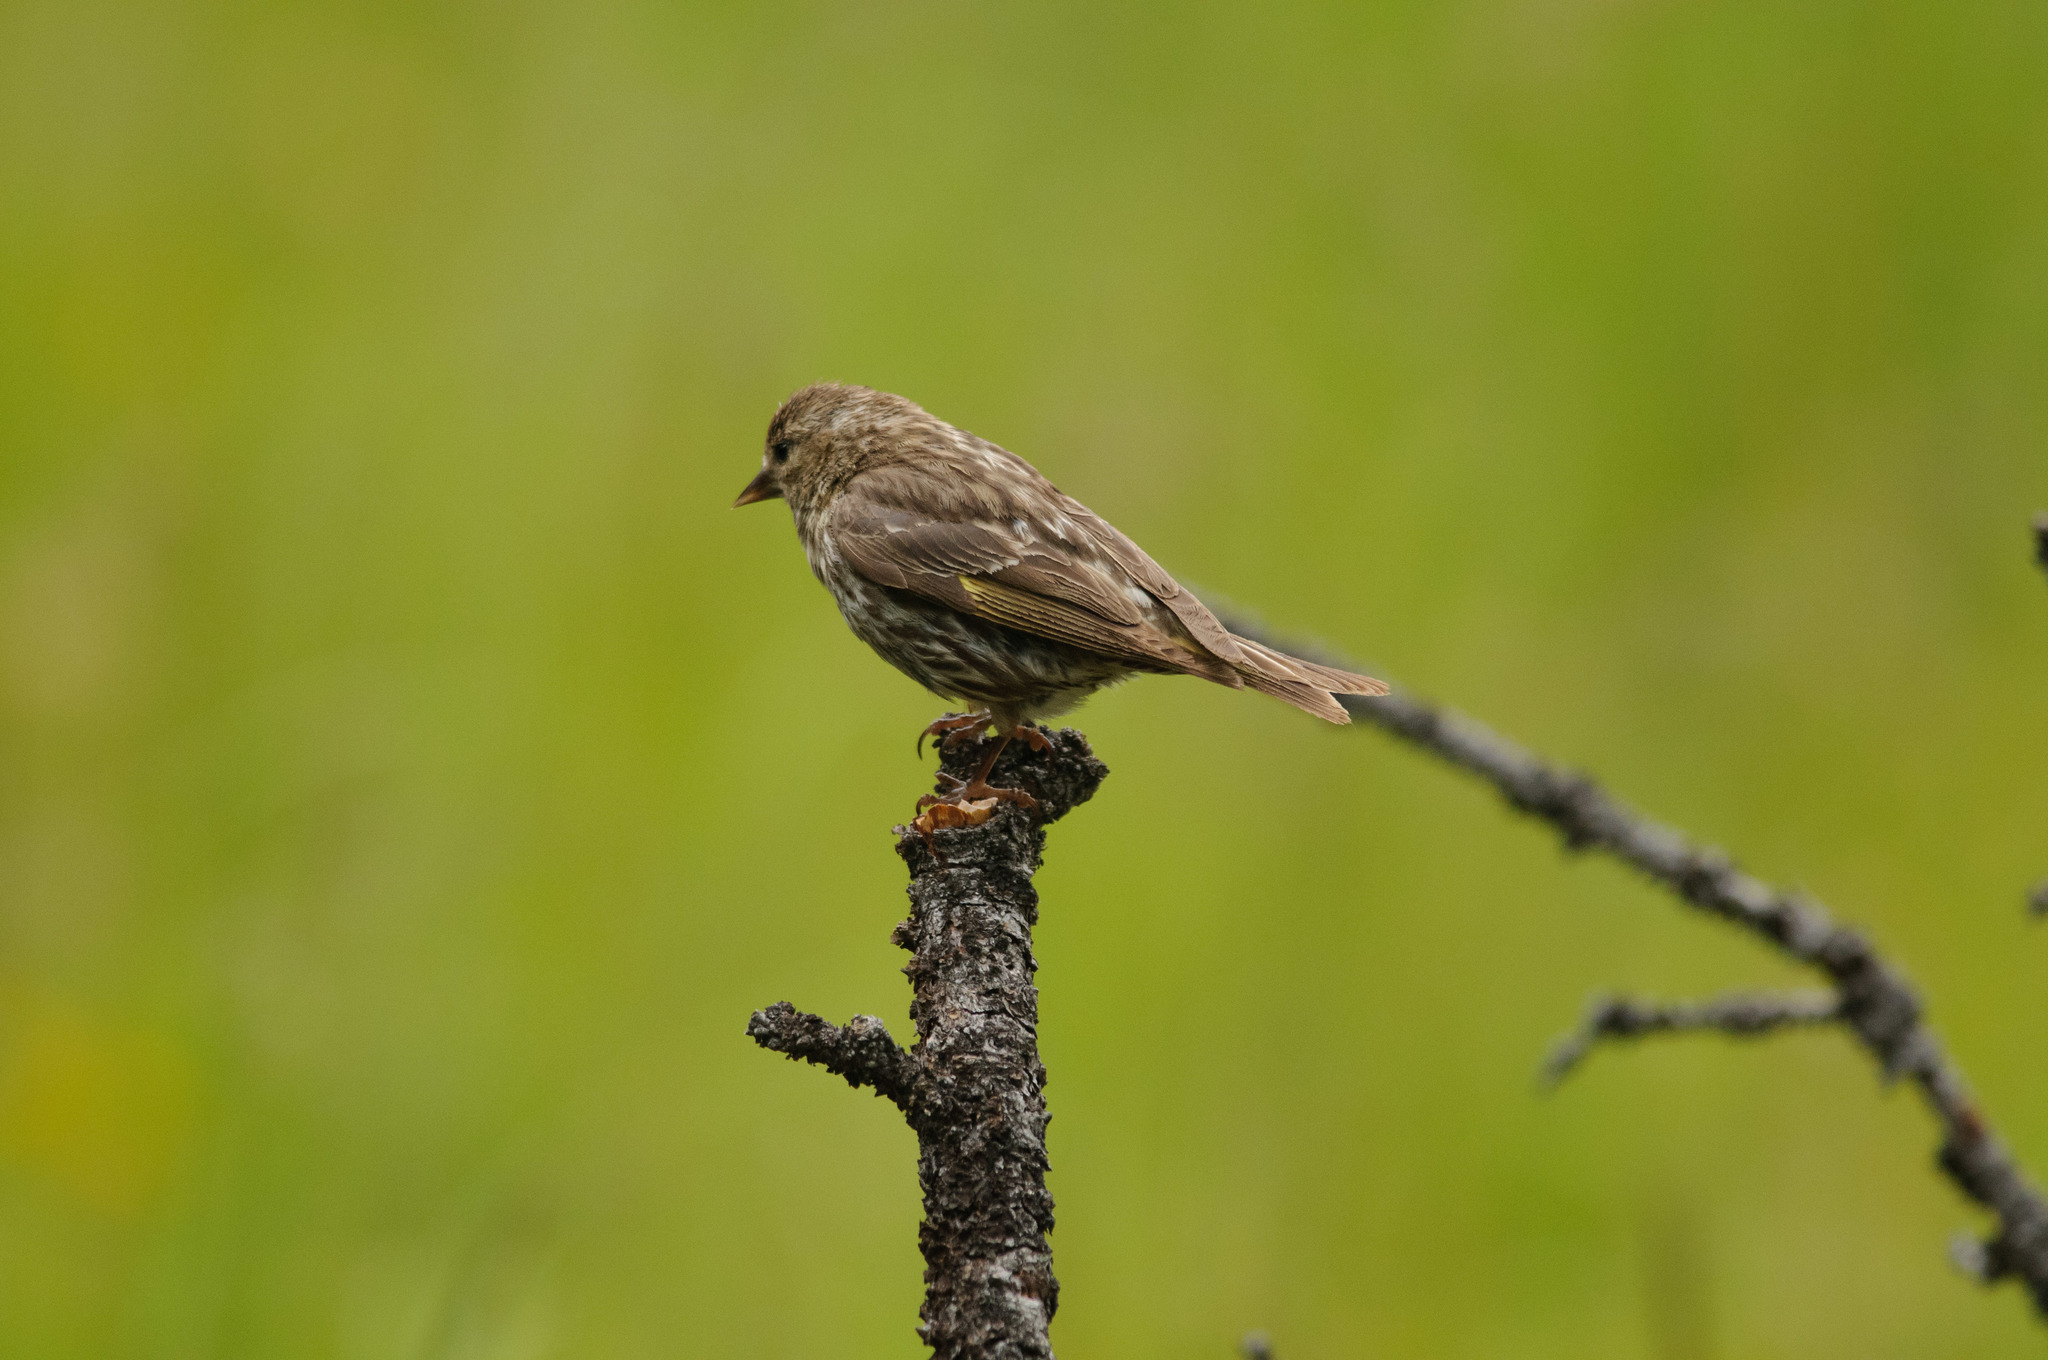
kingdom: Animalia
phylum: Chordata
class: Aves
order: Passeriformes
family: Fringillidae
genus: Spinus
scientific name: Spinus pinus
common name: Pine siskin
